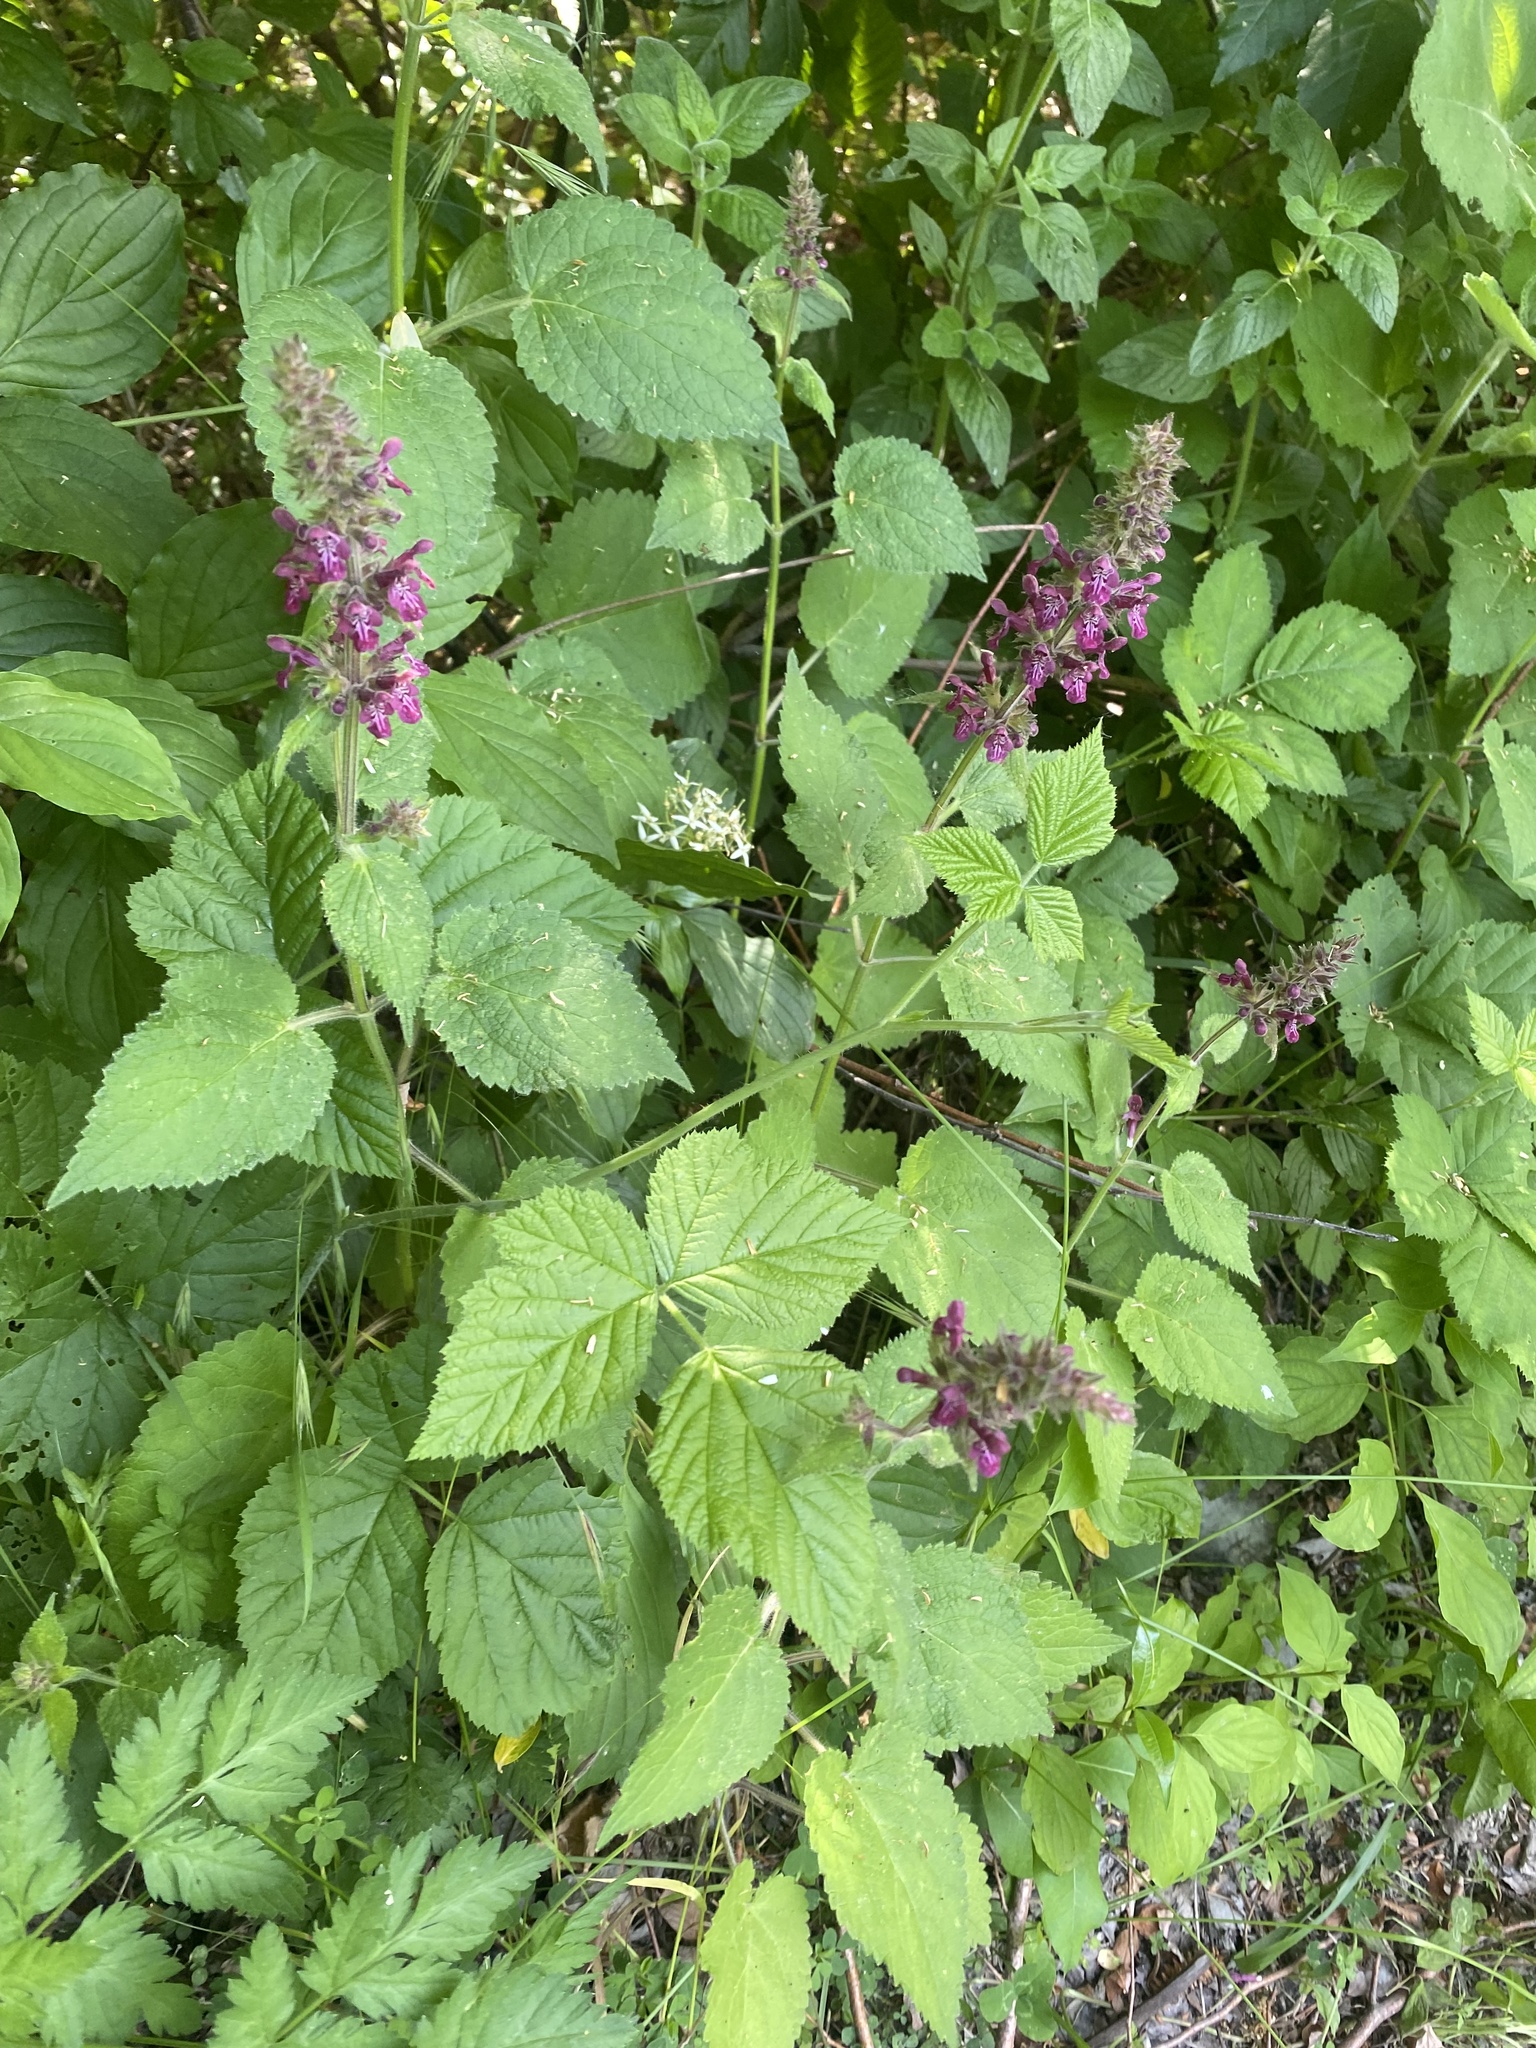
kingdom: Plantae
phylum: Tracheophyta
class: Magnoliopsida
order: Lamiales
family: Lamiaceae
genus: Stachys
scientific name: Stachys sylvatica
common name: Hedge woundwort
